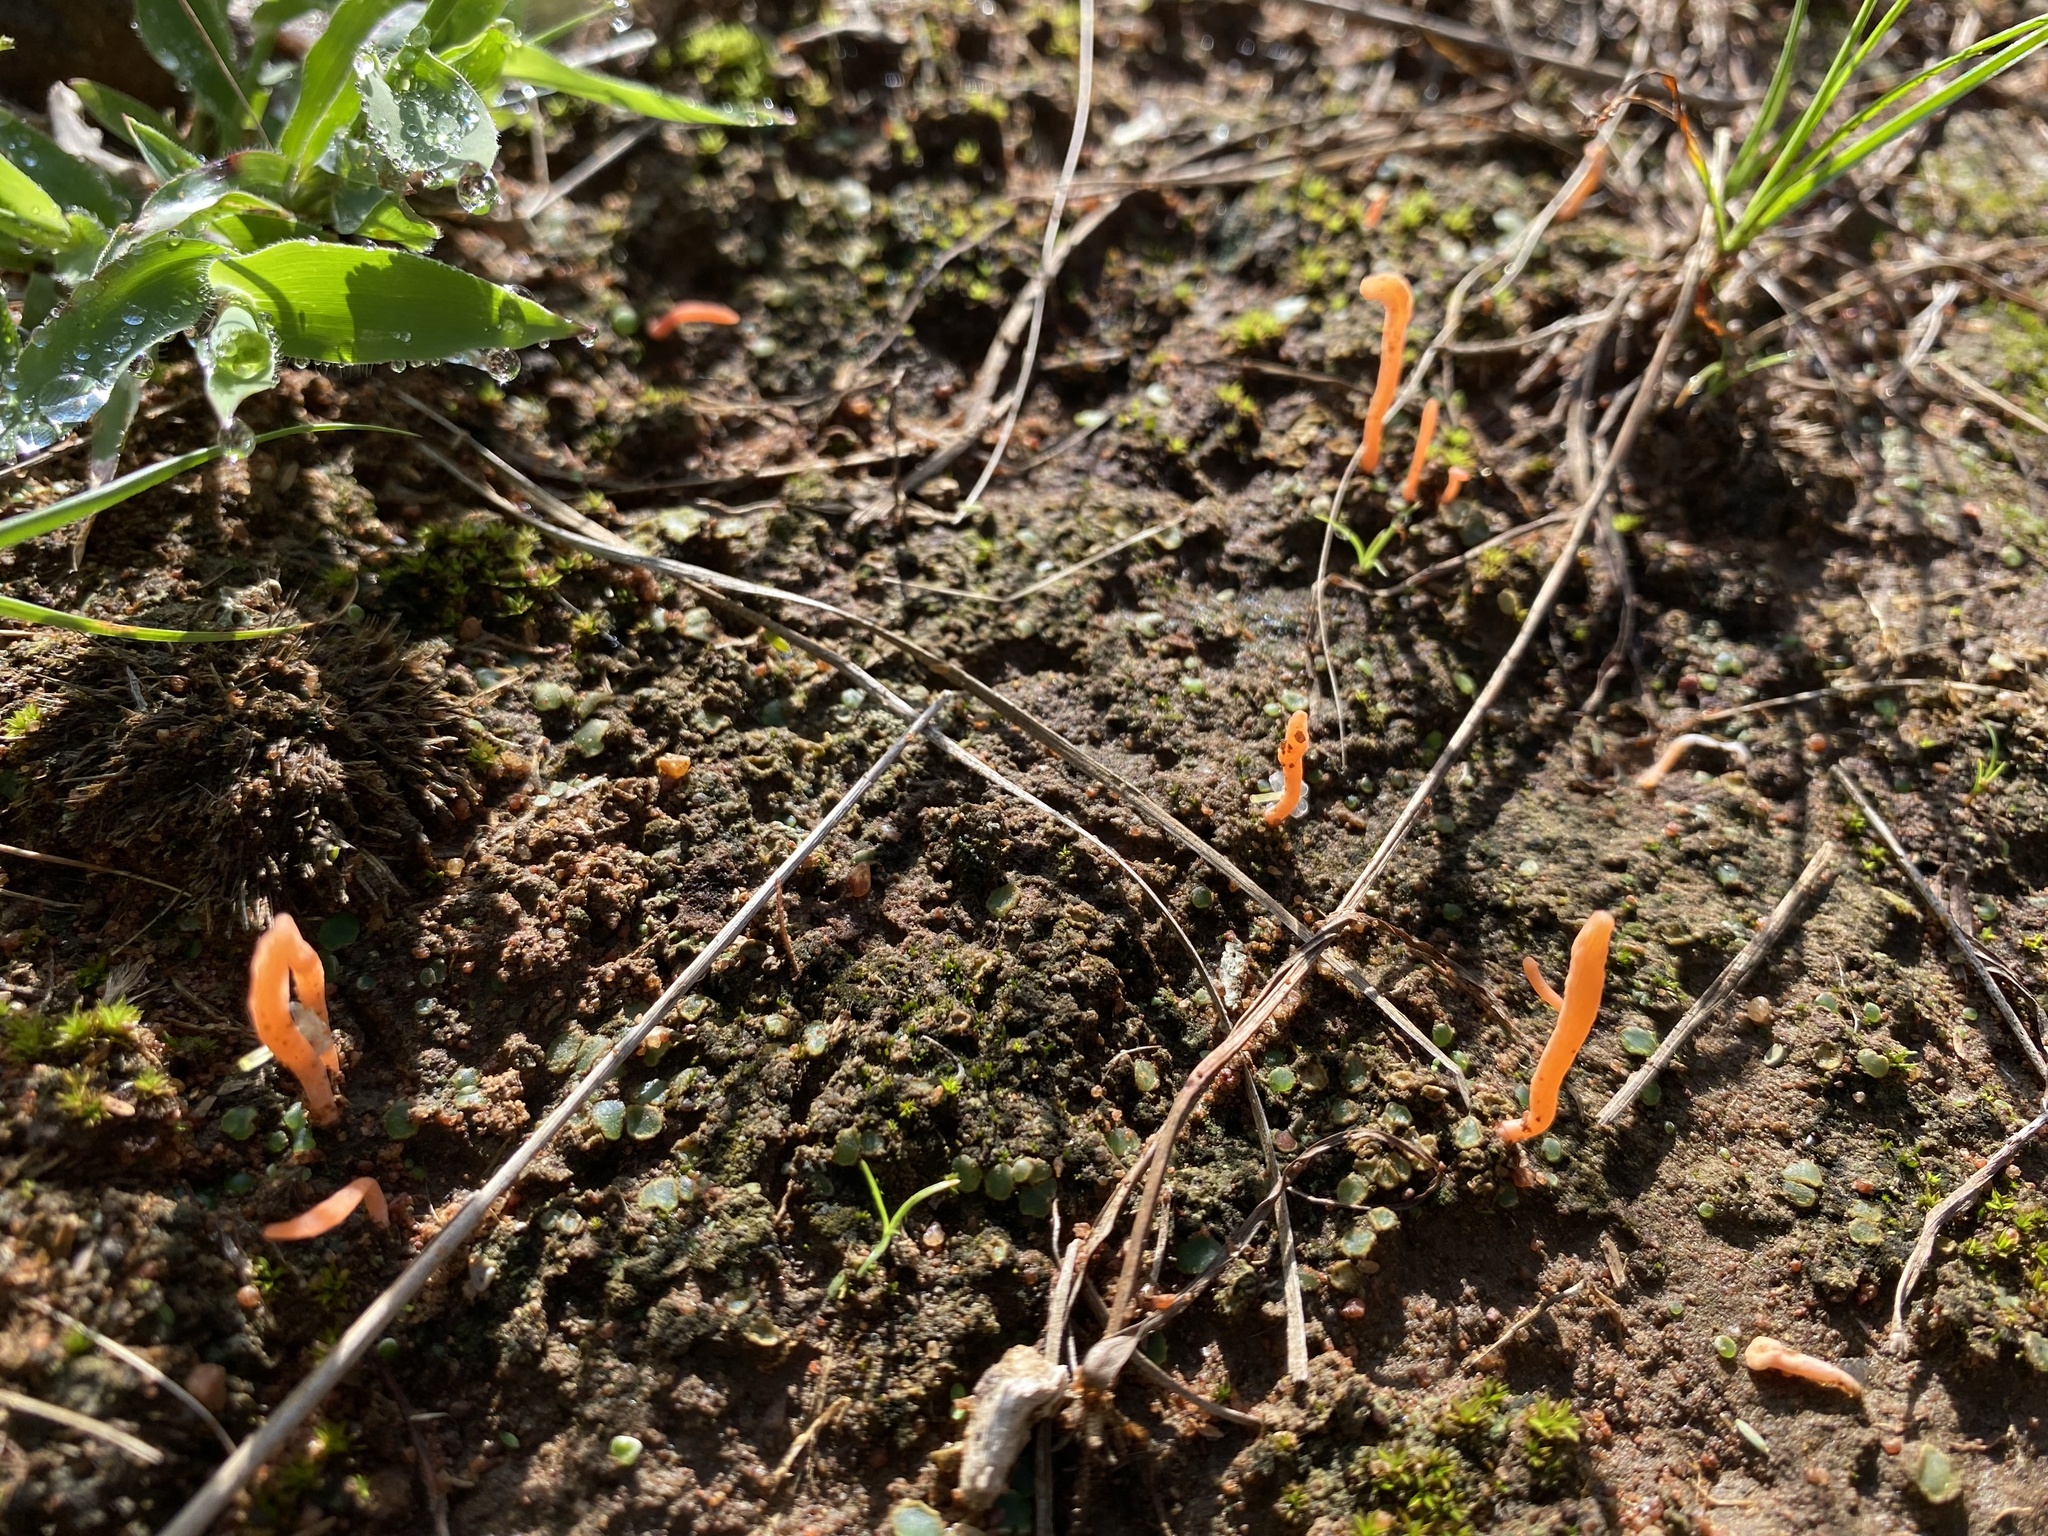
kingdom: Fungi
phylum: Basidiomycota
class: Agaricomycetes
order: Lepidostromatales
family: Lepidostromataceae
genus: Lepidostroma
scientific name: Lepidostroma rugaramae
